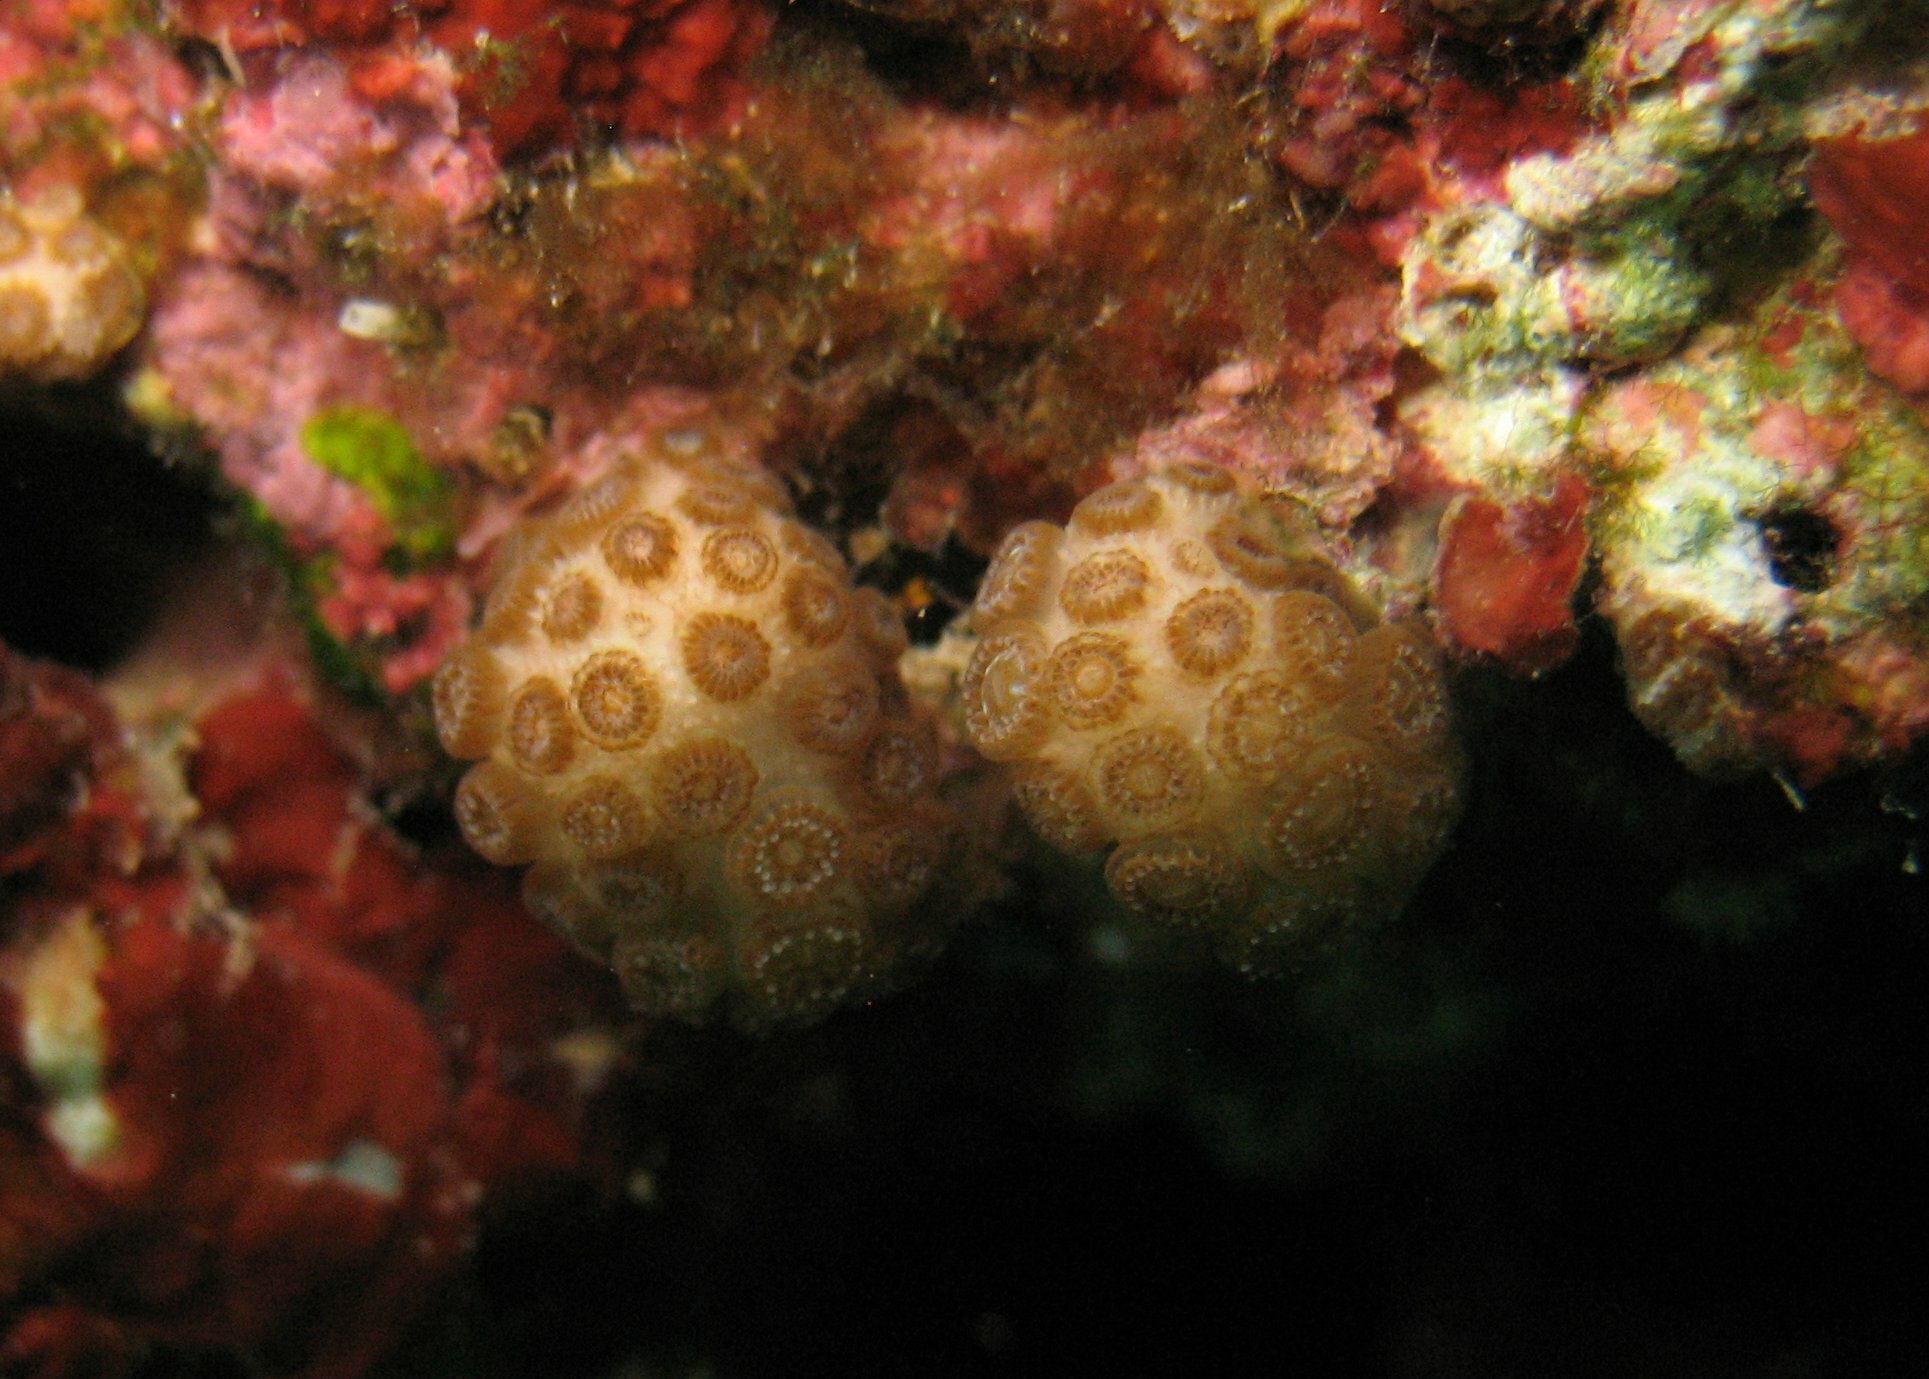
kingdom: Animalia
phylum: Cnidaria
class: Anthozoa
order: Scleractinia
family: Pocilloporidae
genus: Madracis
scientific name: Madracis pharensis
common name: Star coral
